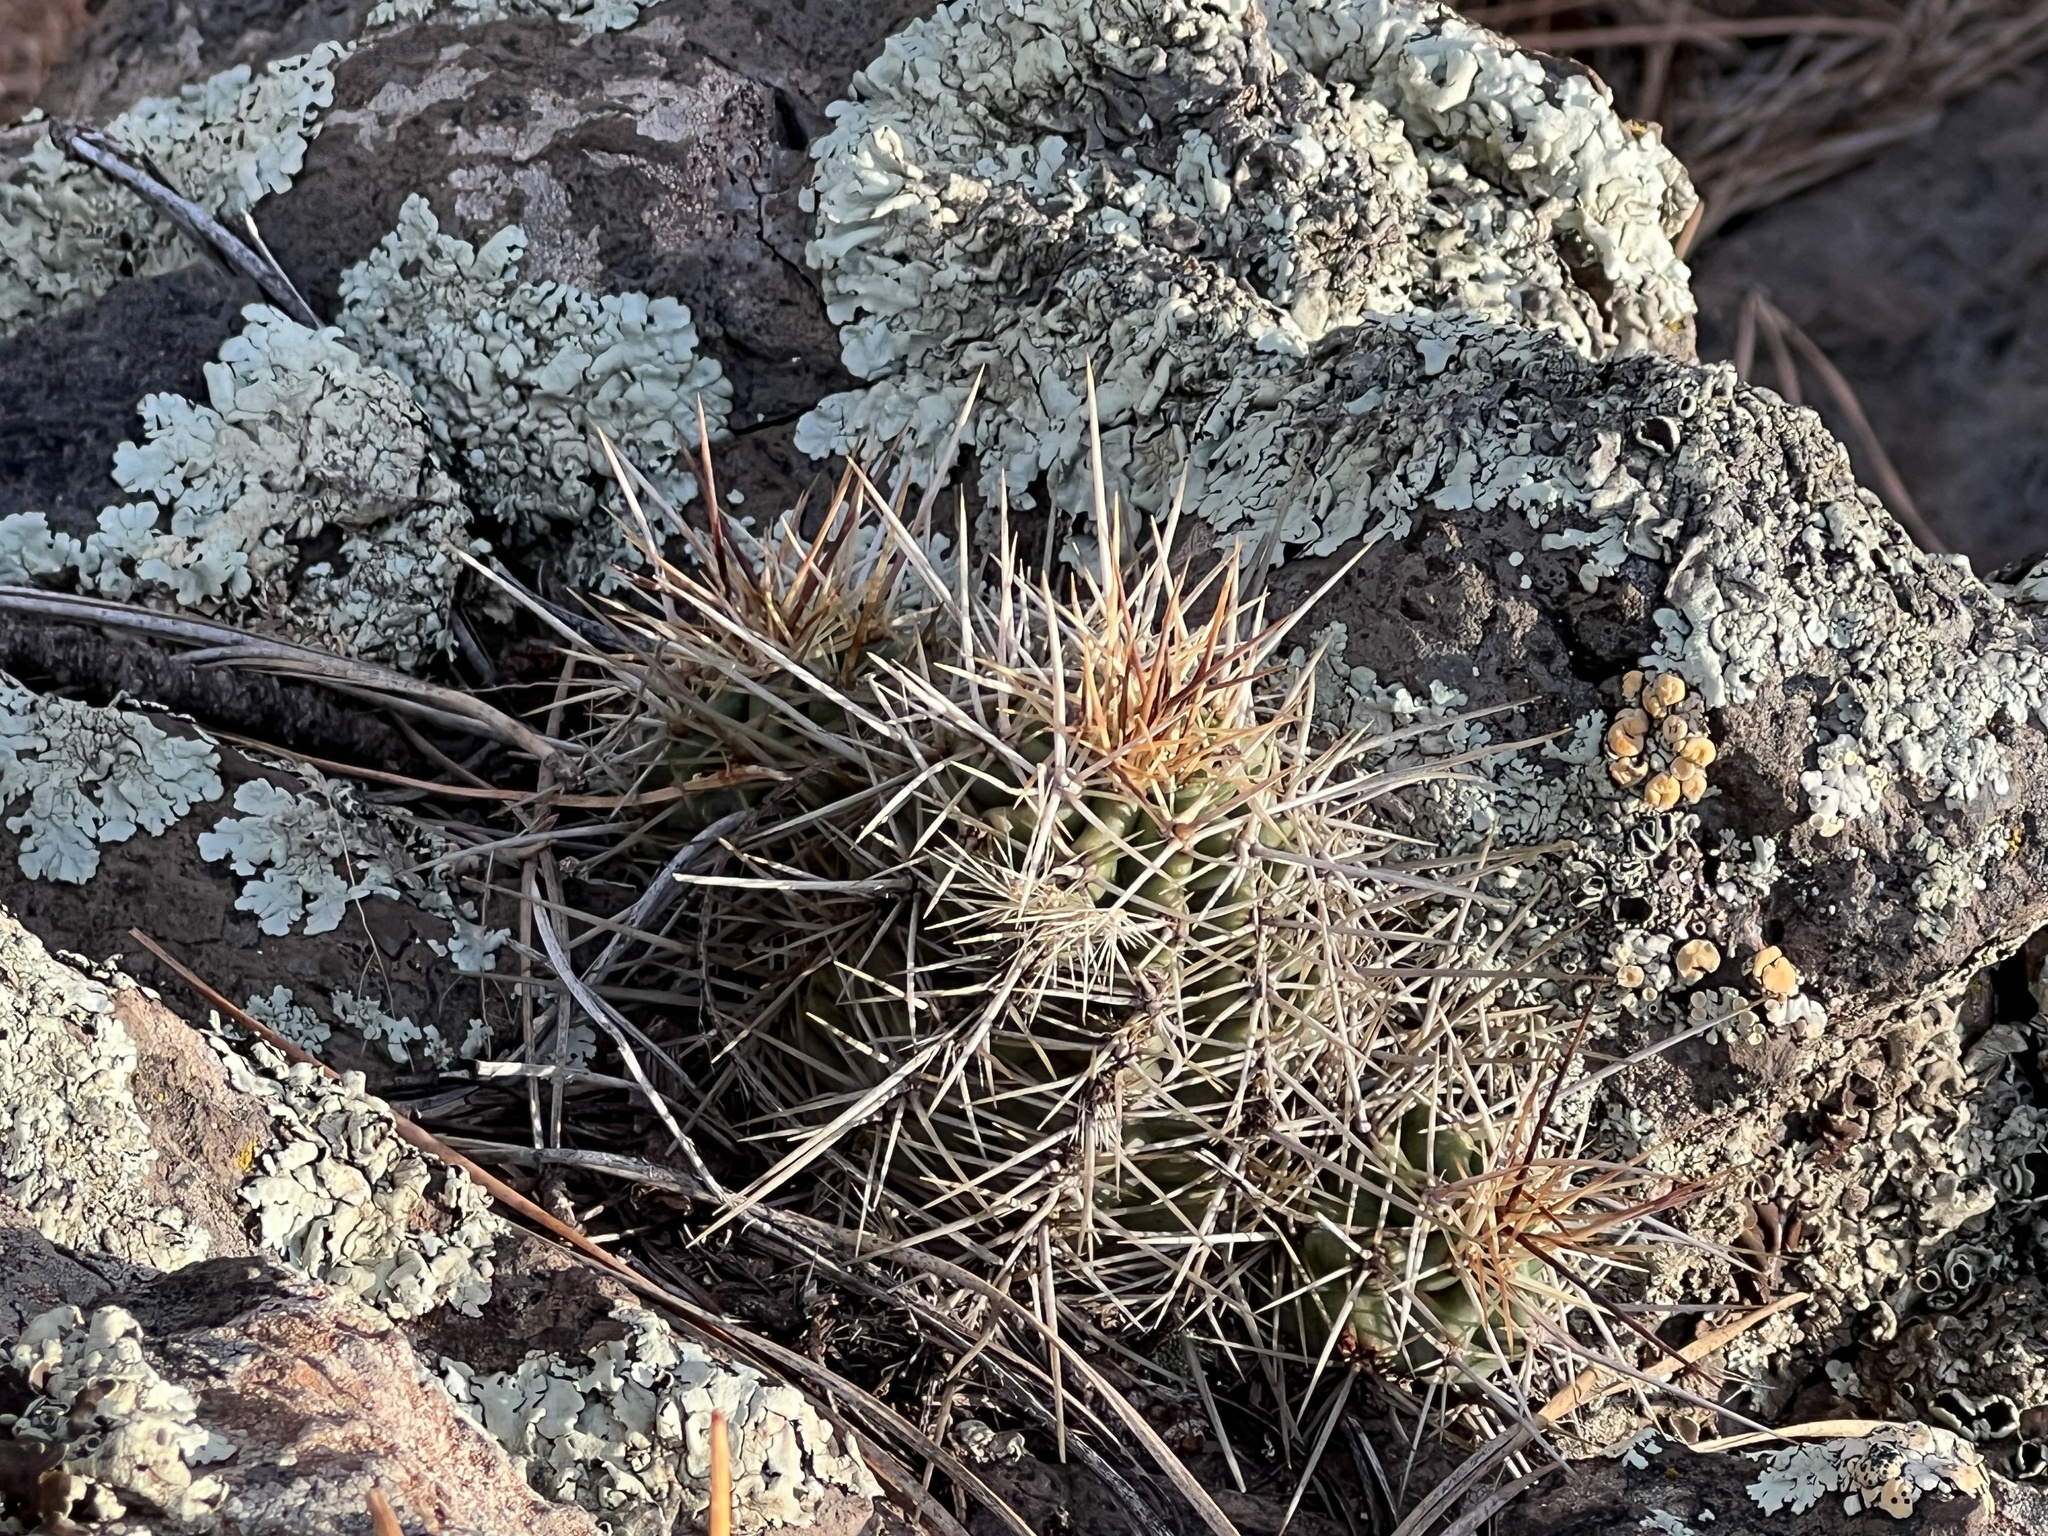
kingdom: Plantae
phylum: Tracheophyta
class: Magnoliopsida
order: Caryophyllales
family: Cactaceae
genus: Echinocereus
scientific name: Echinocereus bakeri
